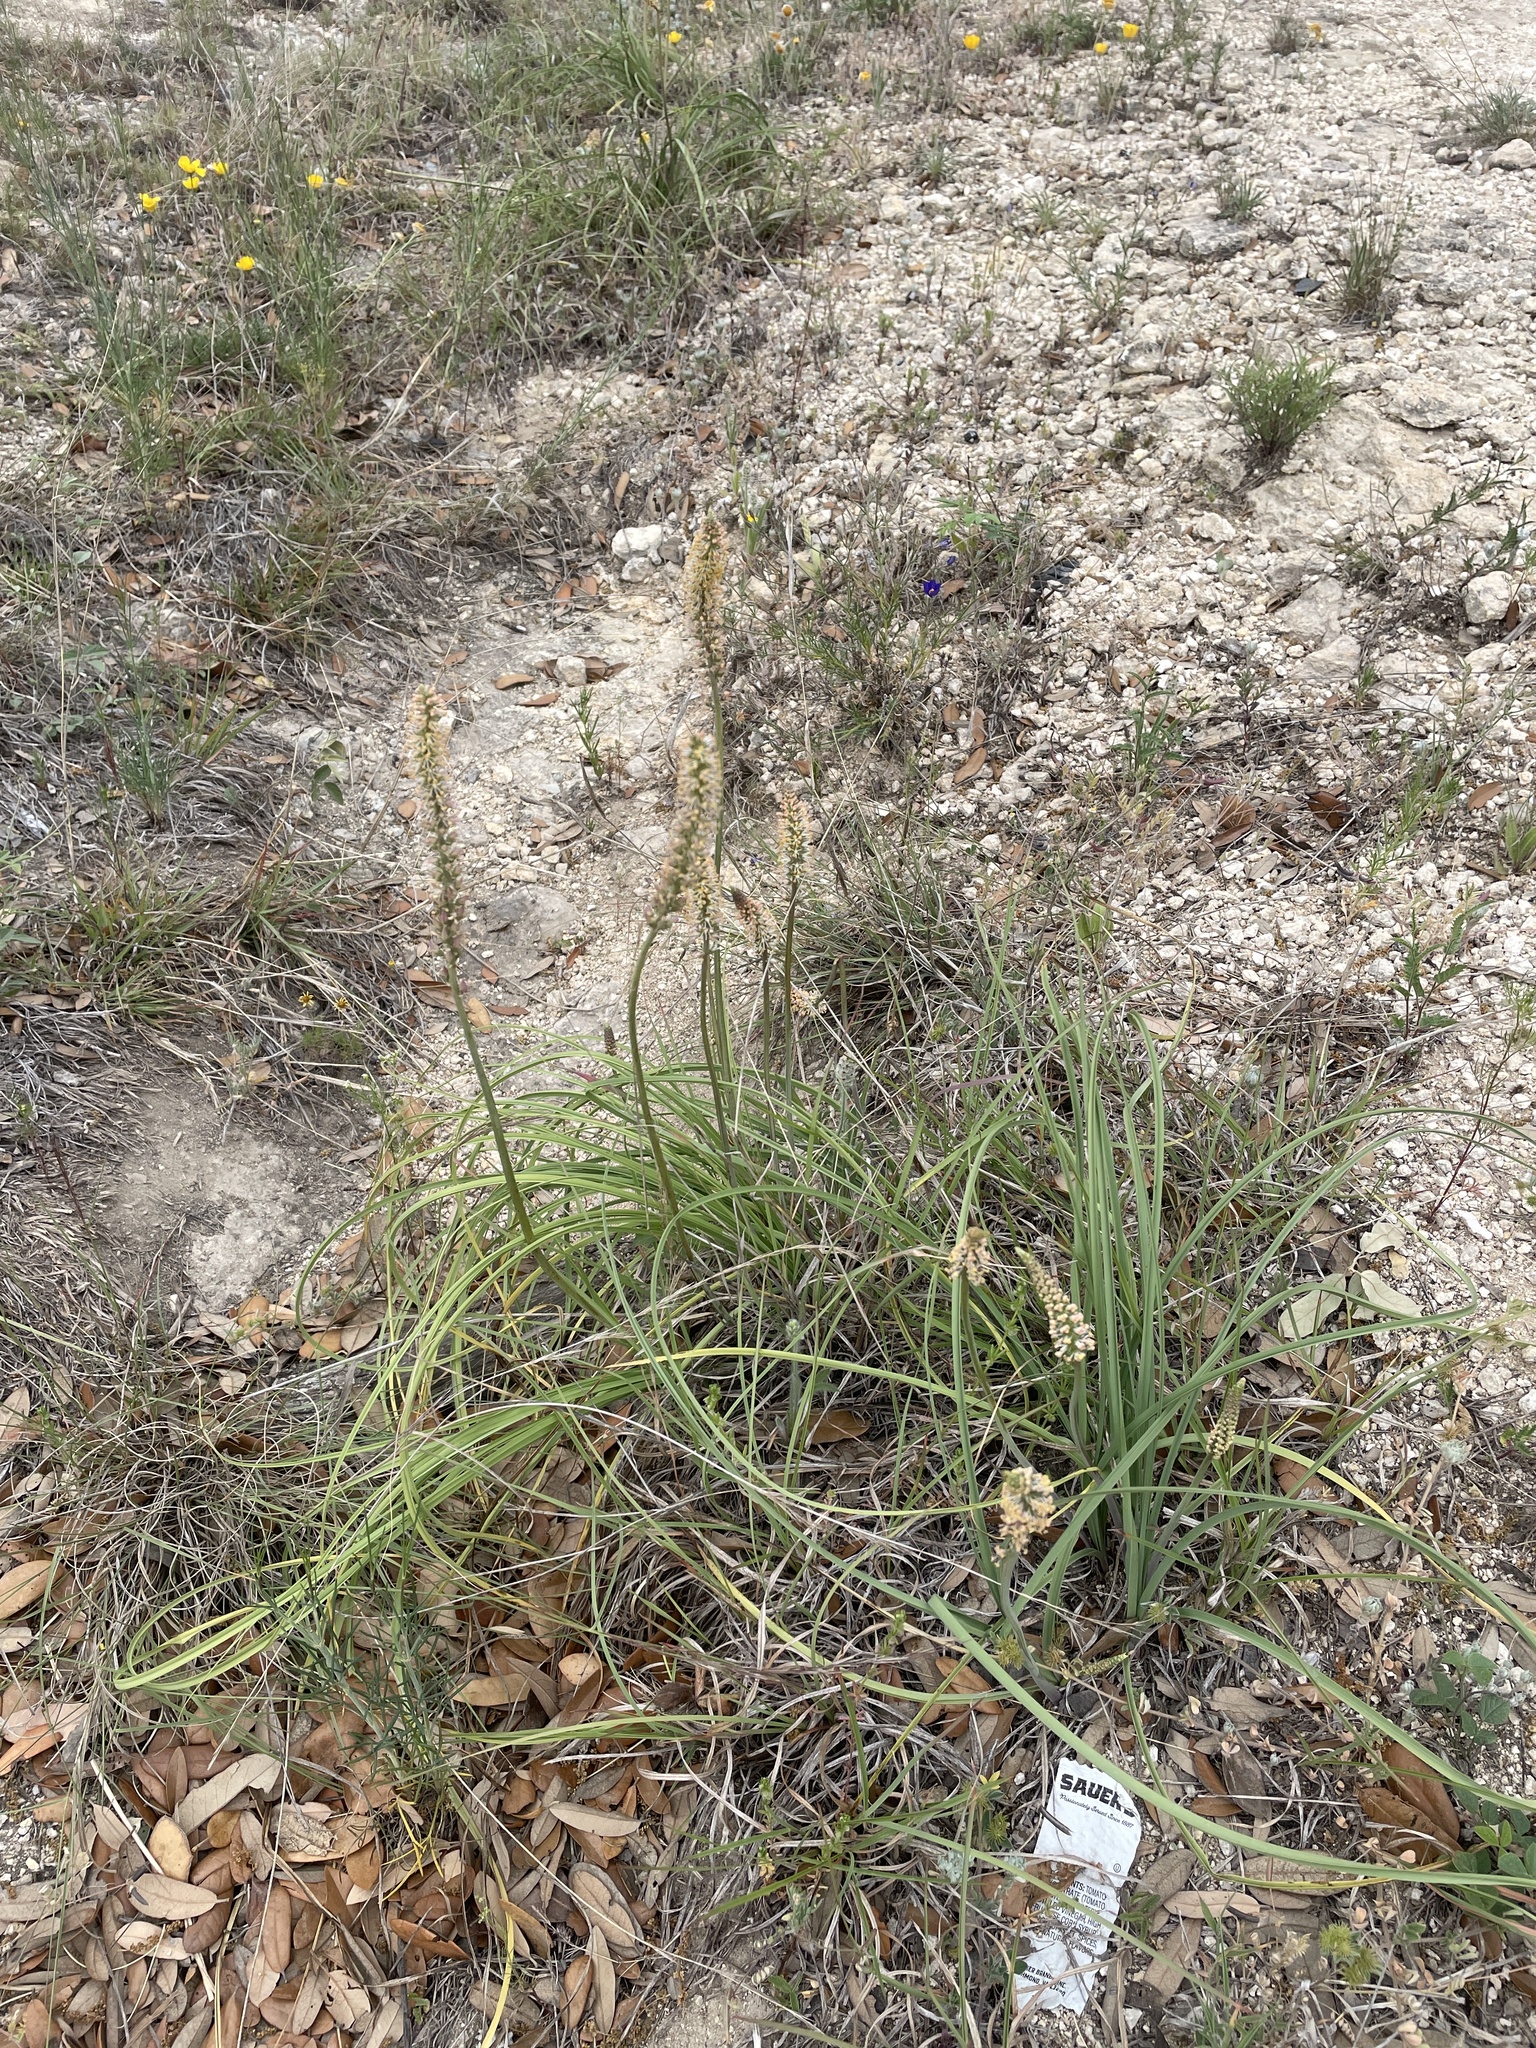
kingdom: Plantae
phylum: Tracheophyta
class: Liliopsida
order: Liliales
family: Melanthiaceae
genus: Schoenocaulon
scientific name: Schoenocaulon texanum
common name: Texas feather-shank
